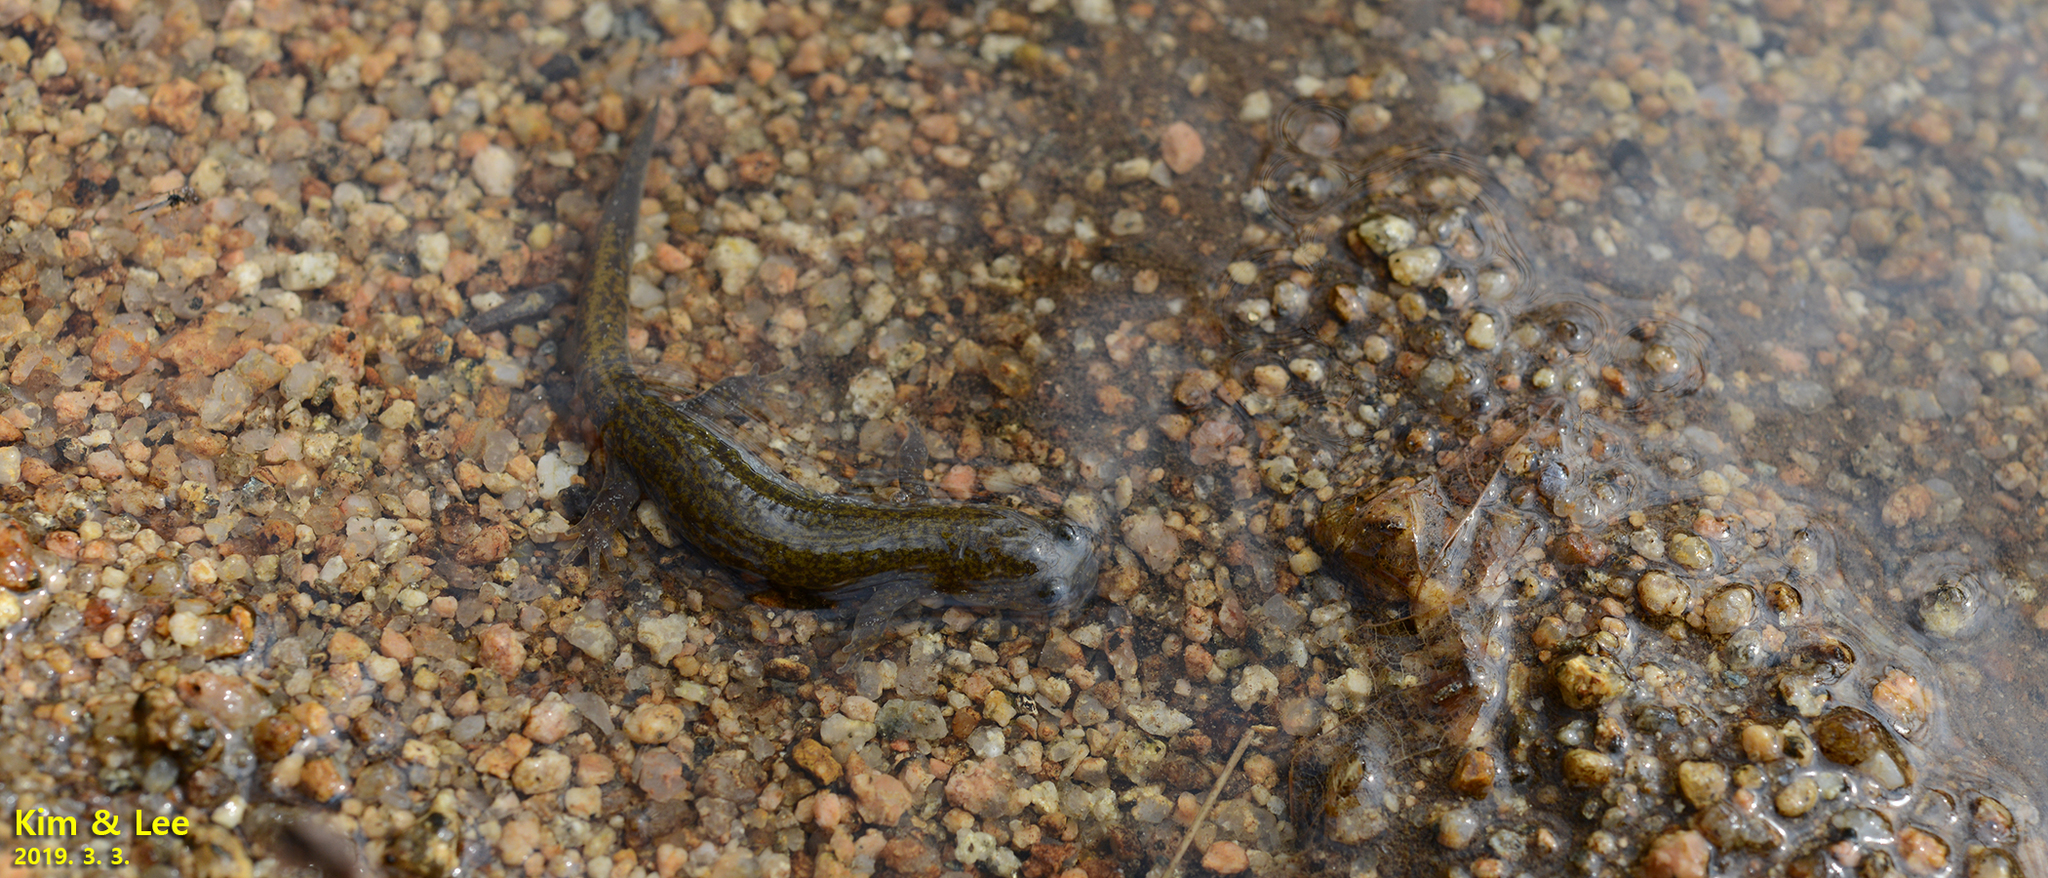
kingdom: Animalia
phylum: Chordata
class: Amphibia
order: Caudata
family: Hynobiidae
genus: Hynobius
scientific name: Hynobius unisacculus
